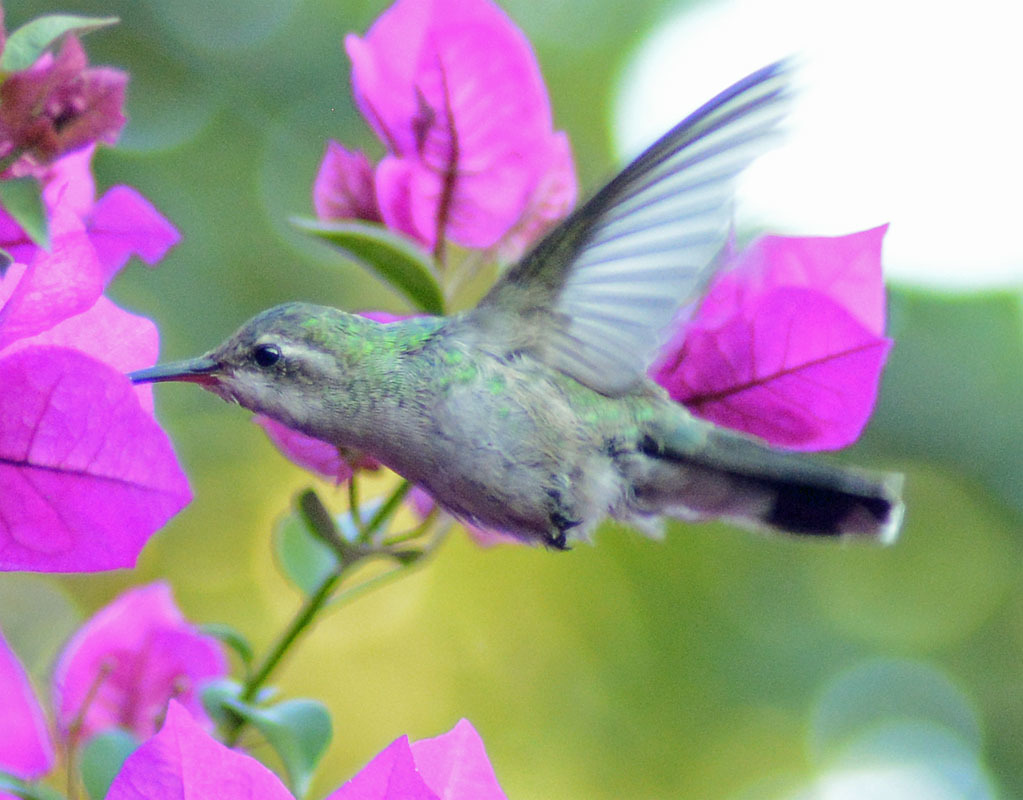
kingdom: Animalia
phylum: Chordata
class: Aves
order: Apodiformes
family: Trochilidae
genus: Cynanthus
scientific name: Cynanthus latirostris
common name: Broad-billed hummingbird
